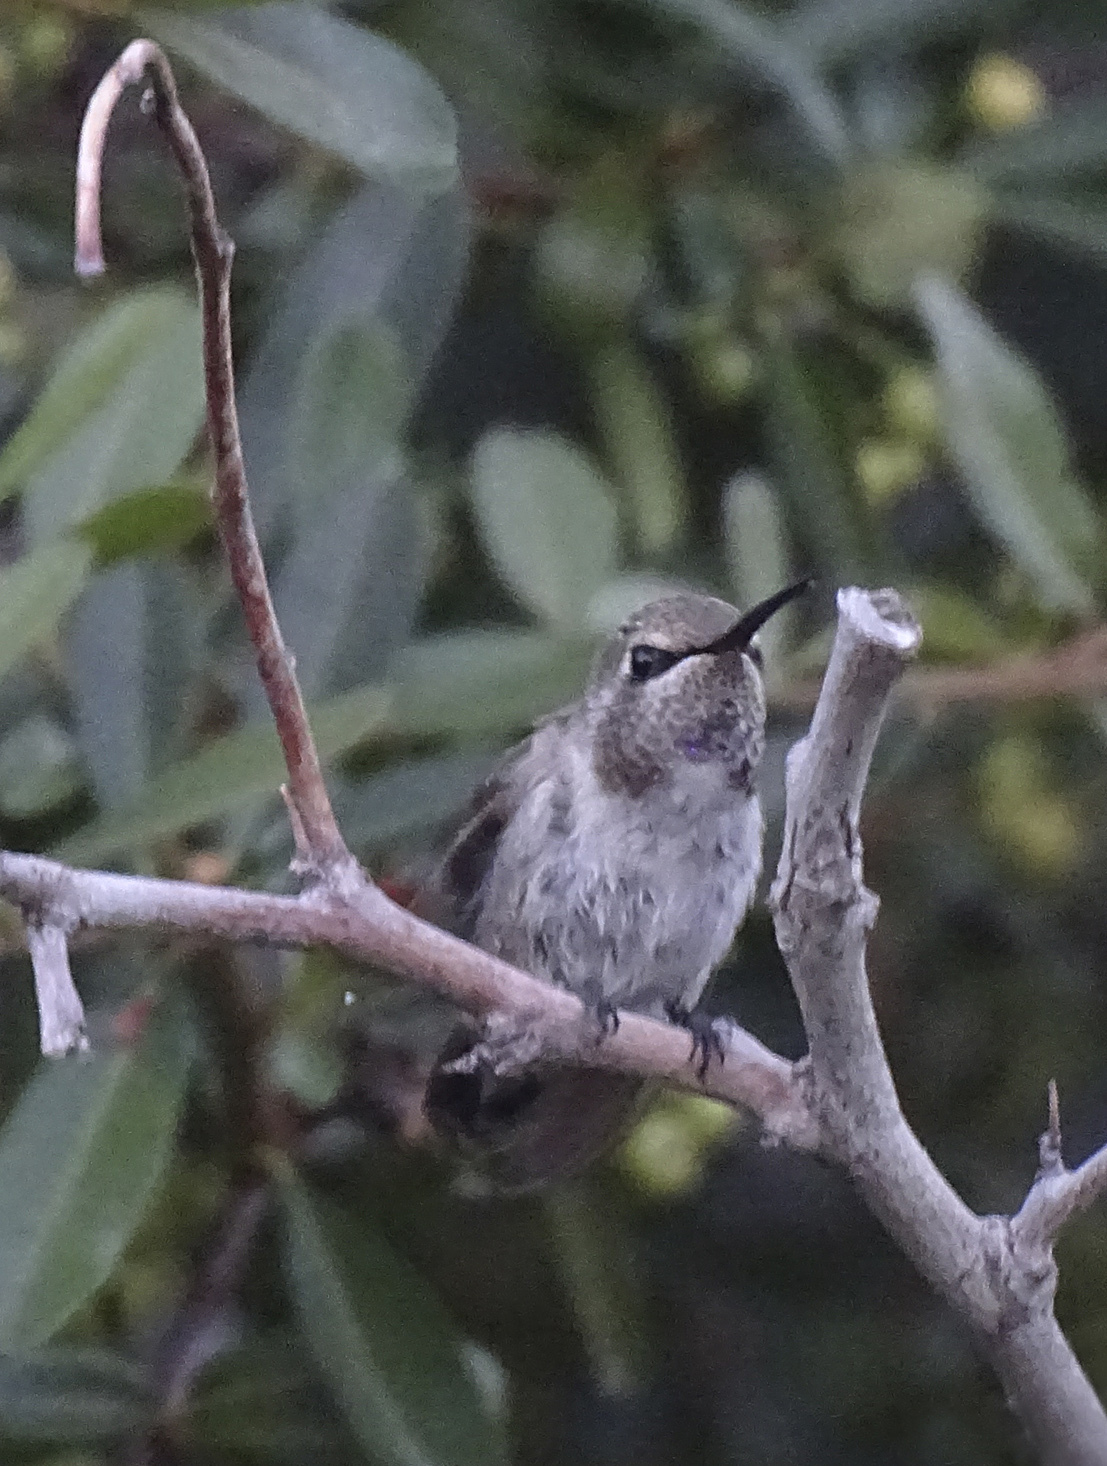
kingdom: Animalia
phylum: Chordata
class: Aves
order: Apodiformes
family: Trochilidae
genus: Calypte
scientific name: Calypte costae
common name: Costa's hummingbird
